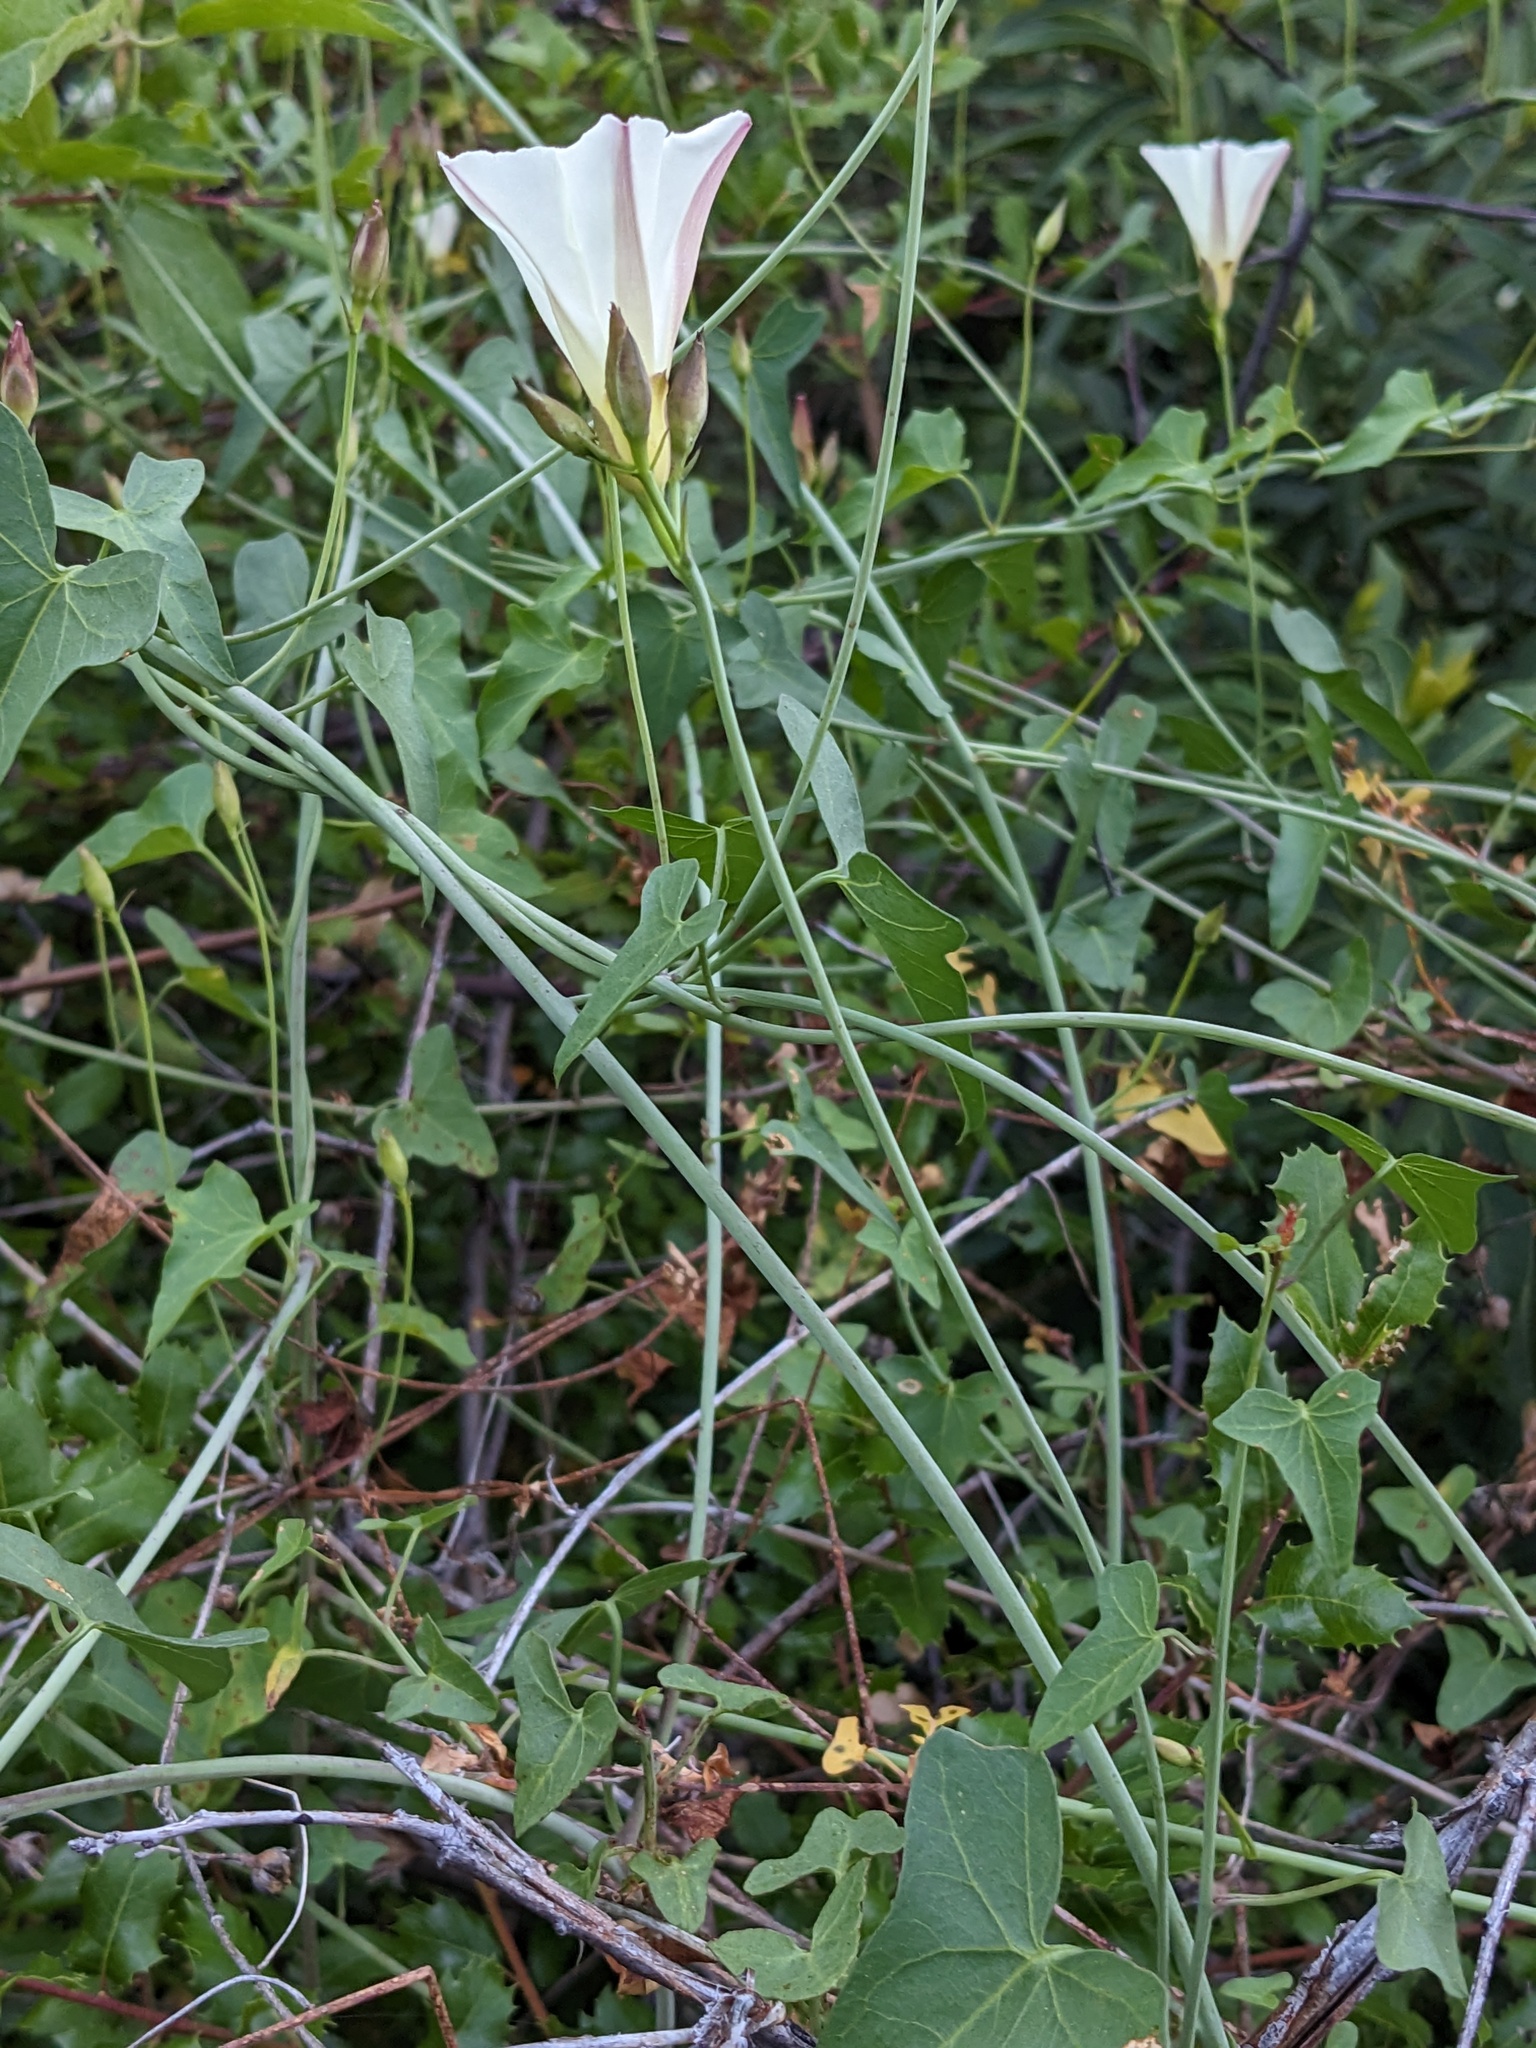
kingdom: Plantae
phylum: Tracheophyta
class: Magnoliopsida
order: Solanales
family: Convolvulaceae
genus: Calystegia
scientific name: Calystegia purpurata
